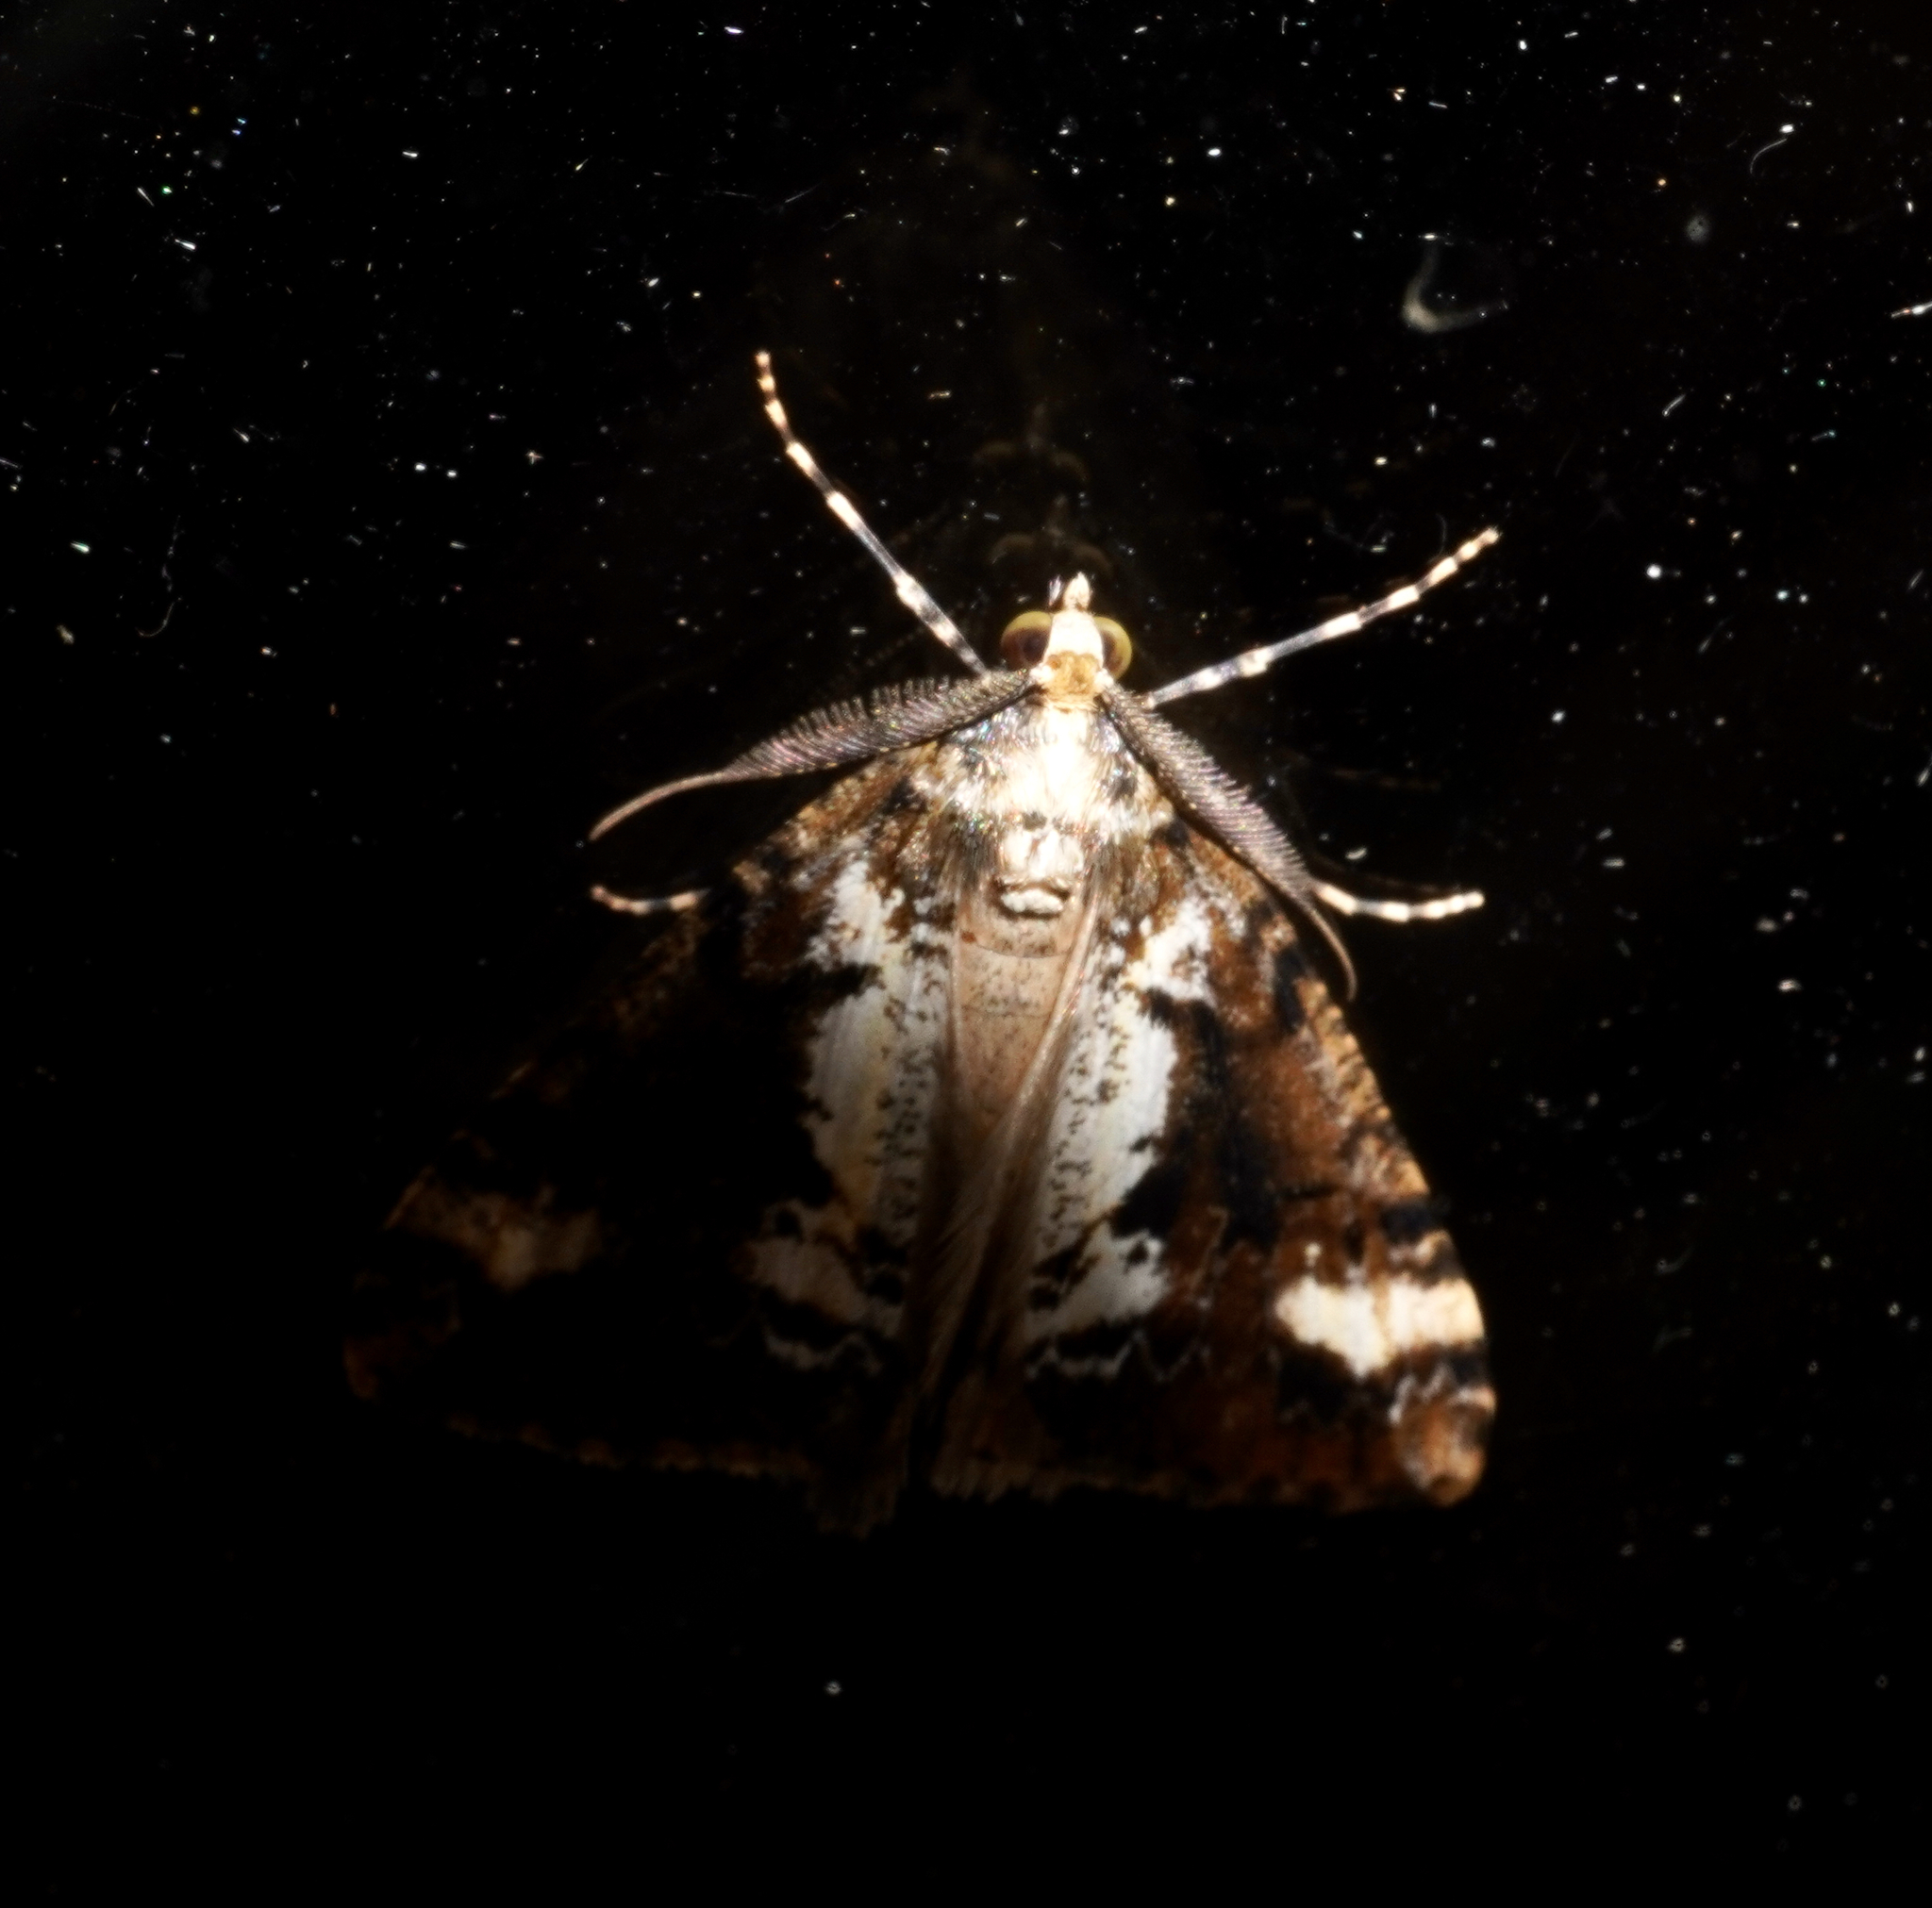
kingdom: Animalia
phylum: Arthropoda
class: Insecta
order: Lepidoptera
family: Geometridae
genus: Pseudocoremia
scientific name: Pseudocoremia leucelaea
